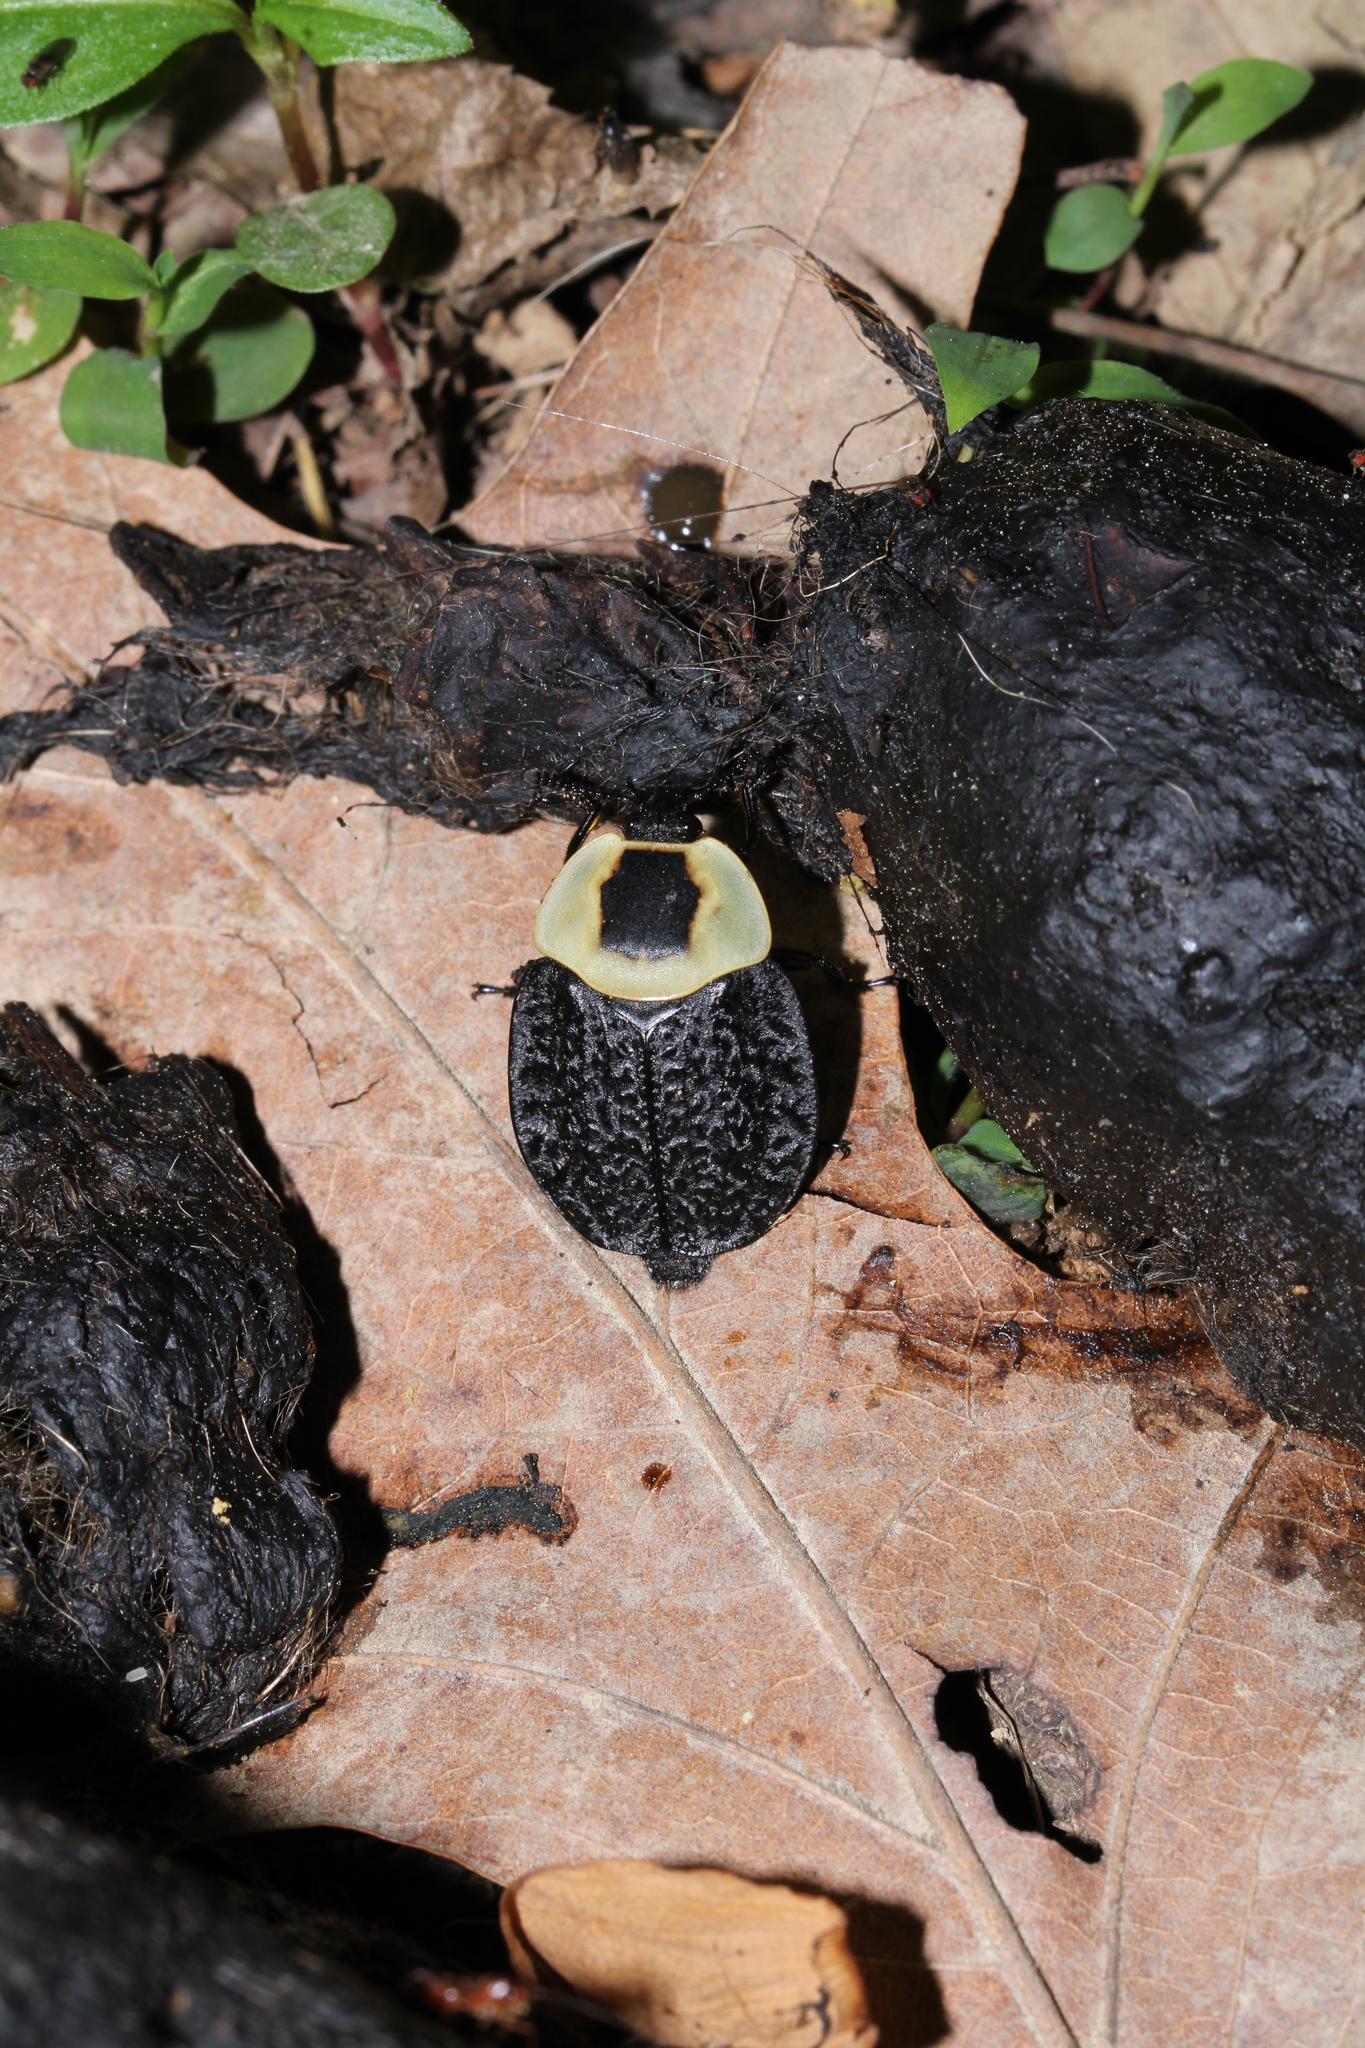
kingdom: Animalia
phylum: Arthropoda
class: Insecta
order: Coleoptera
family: Staphylinidae
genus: Necrophila
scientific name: Necrophila americana
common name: American carrion beetle
